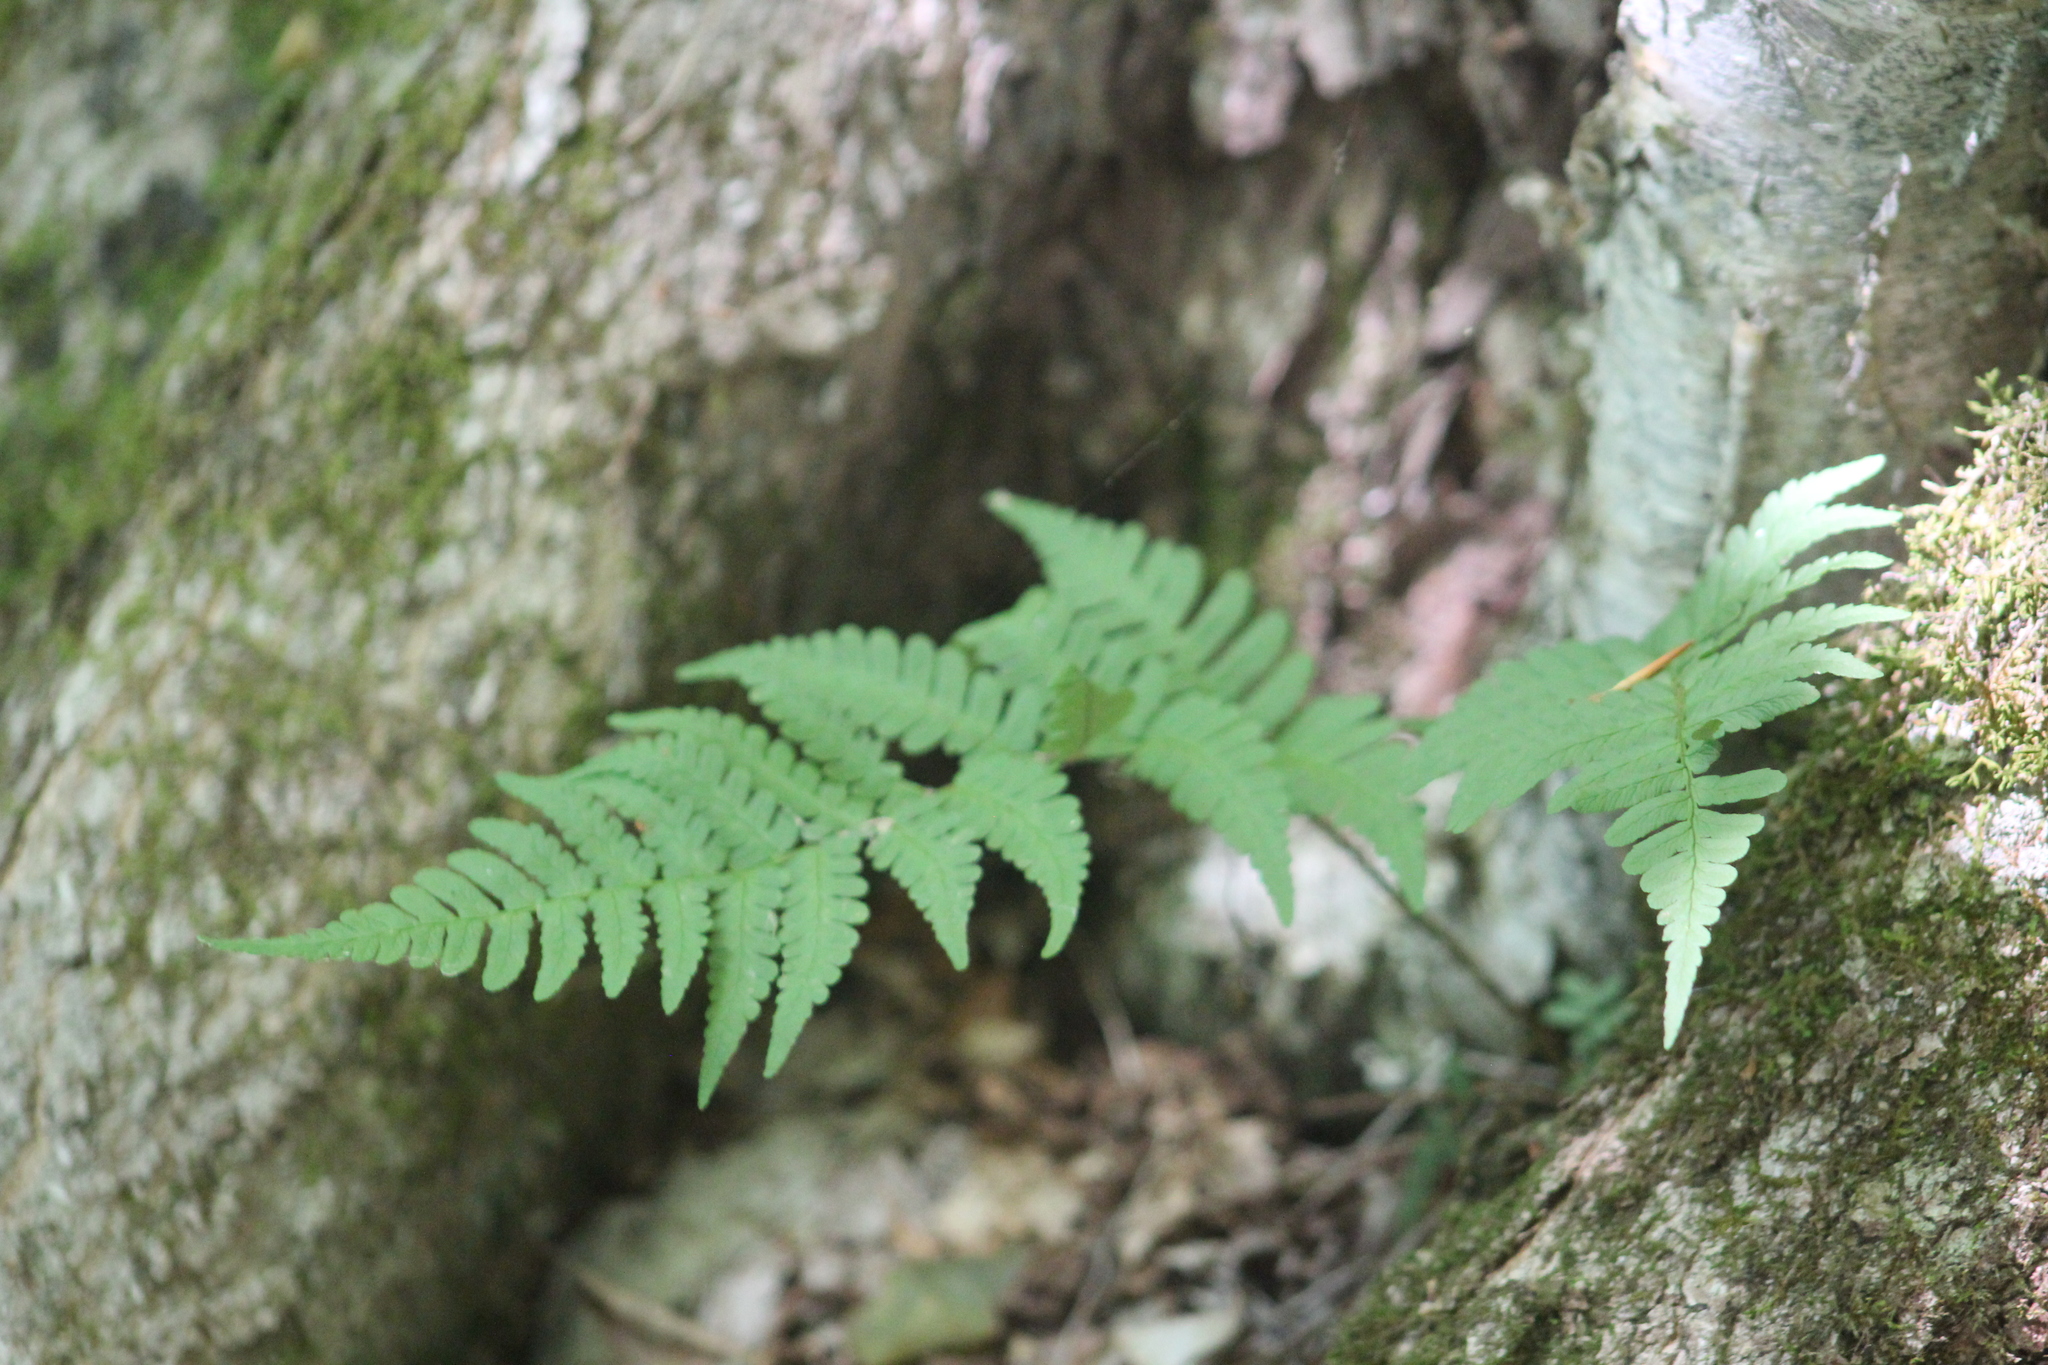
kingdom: Plantae
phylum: Tracheophyta
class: Polypodiopsida
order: Polypodiales
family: Dryopteridaceae
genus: Dryopteris
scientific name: Dryopteris marginalis
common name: Marginal wood fern
